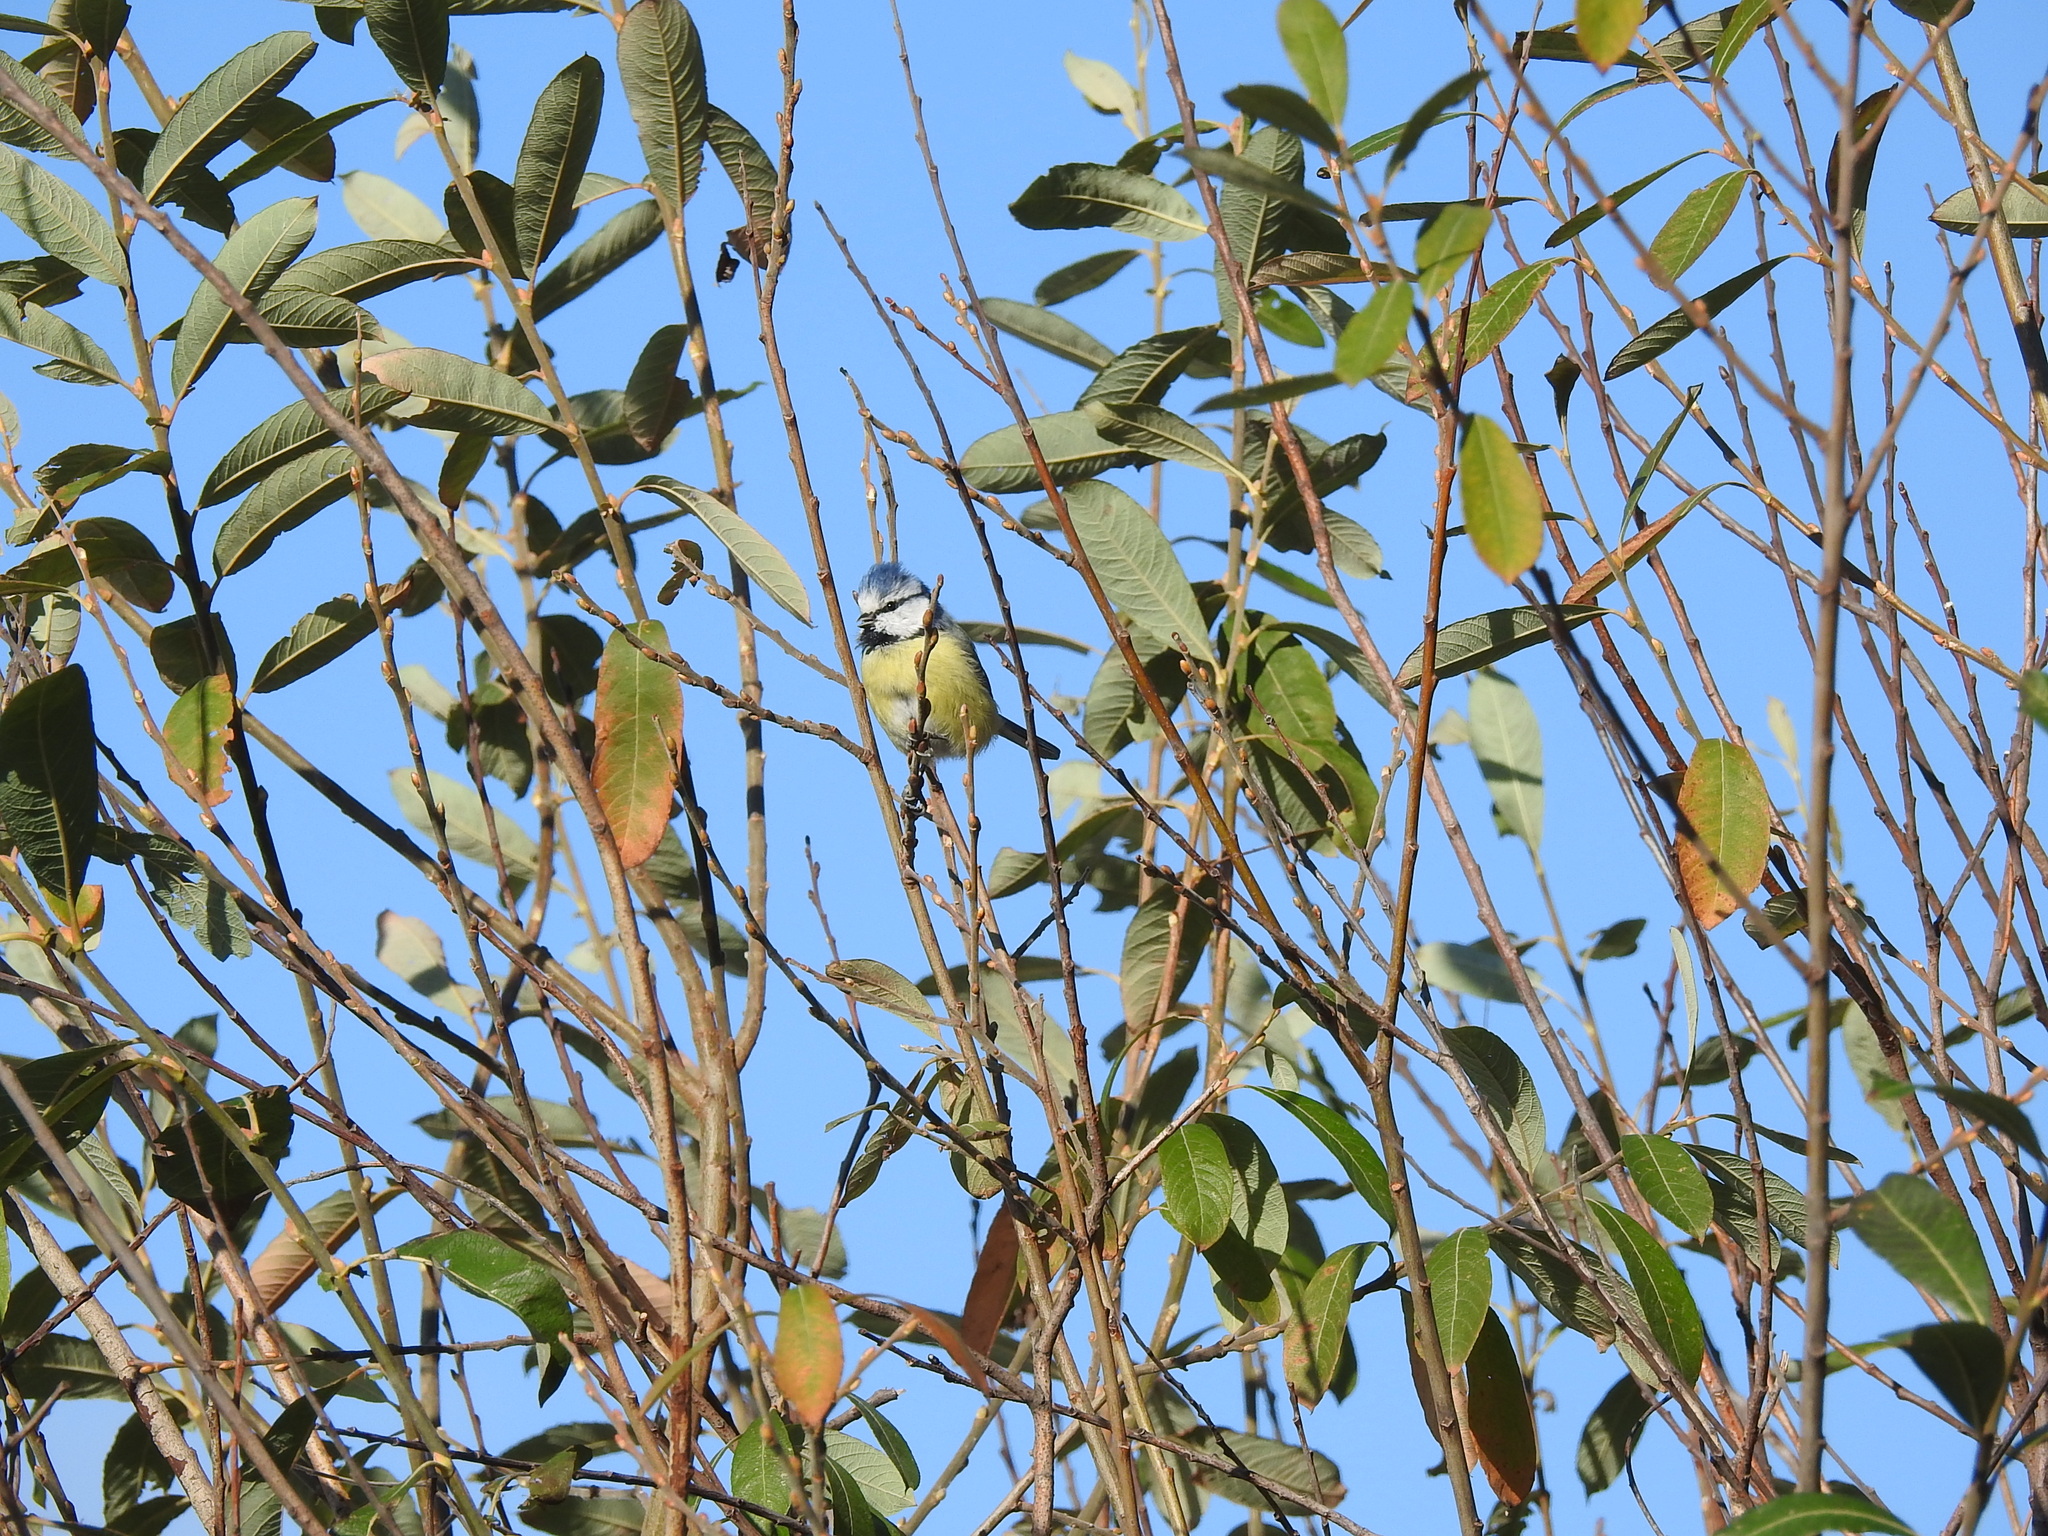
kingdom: Animalia
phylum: Chordata
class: Aves
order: Passeriformes
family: Paridae
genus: Cyanistes
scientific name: Cyanistes caeruleus
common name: Eurasian blue tit
